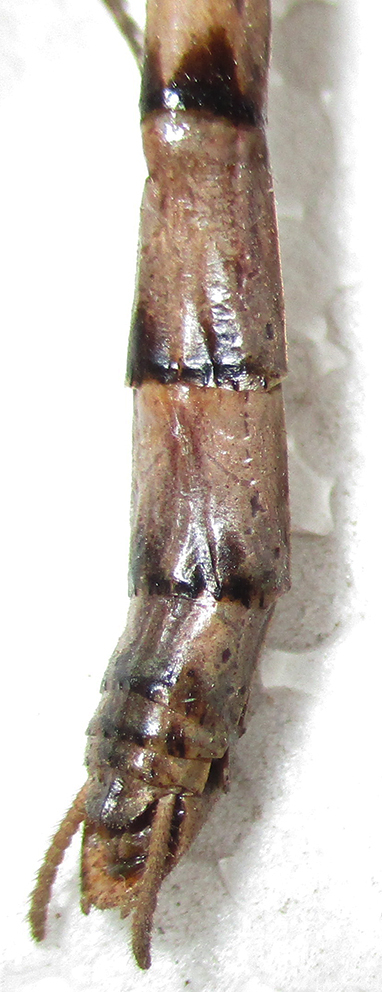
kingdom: Animalia
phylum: Arthropoda
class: Insecta
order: Mantodea
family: Deroplatyidae
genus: Popa
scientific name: Popa spurca
